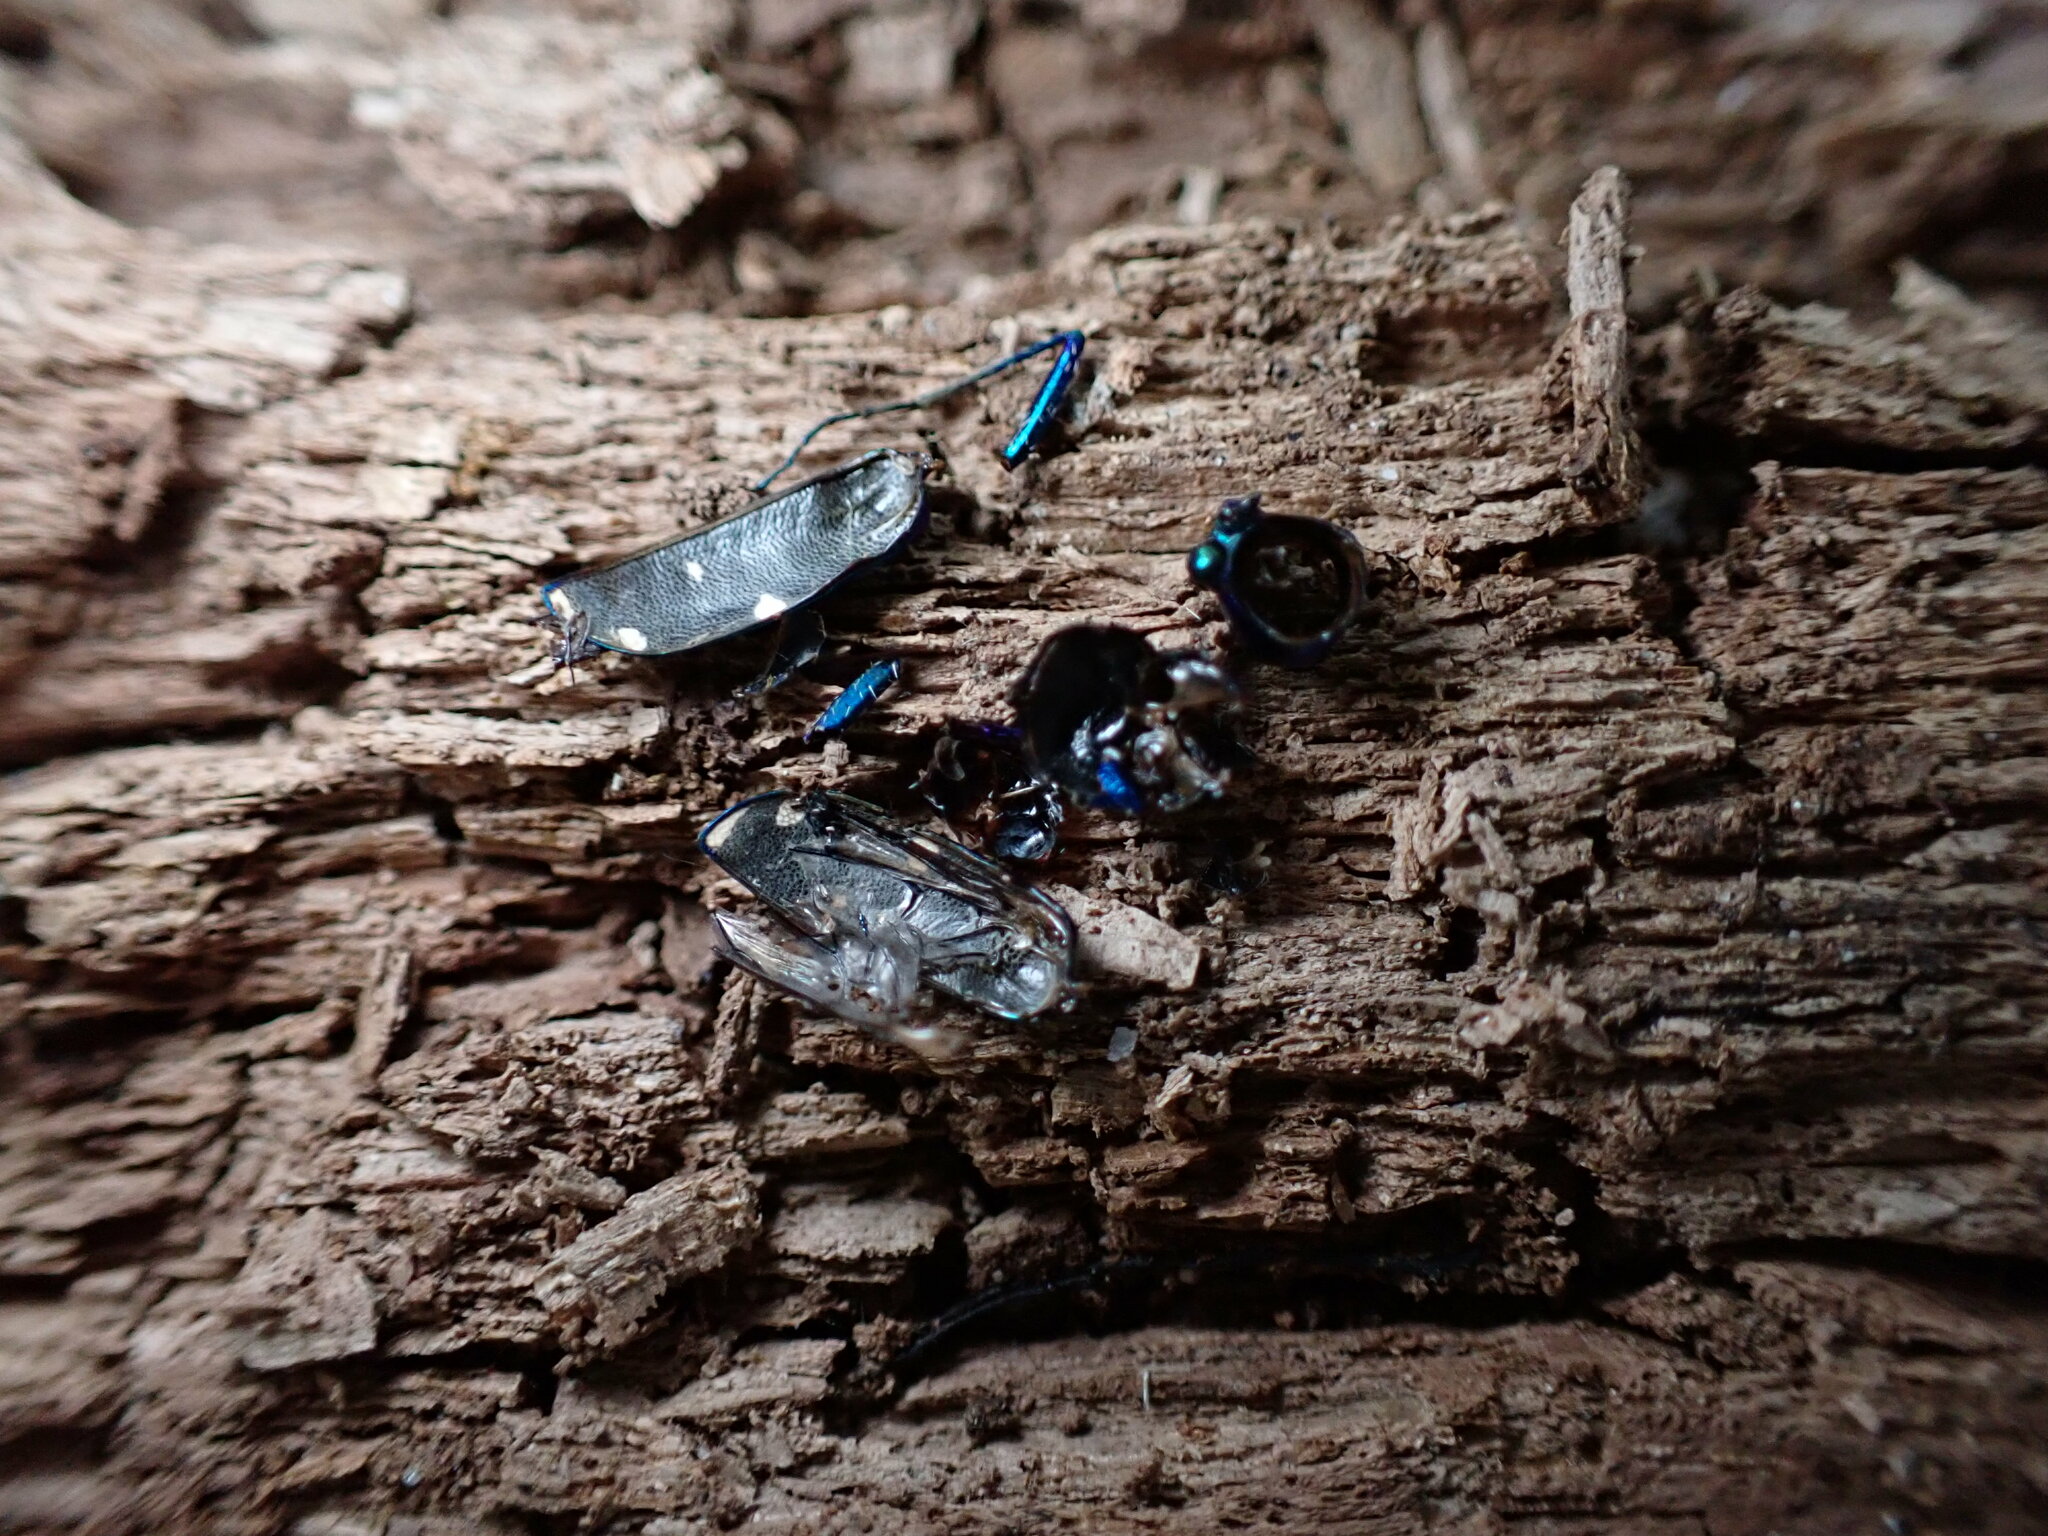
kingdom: Animalia
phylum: Arthropoda
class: Insecta
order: Coleoptera
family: Carabidae
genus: Cicindela
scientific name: Cicindela sexguttata
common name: Six-spotted tiger beetle
